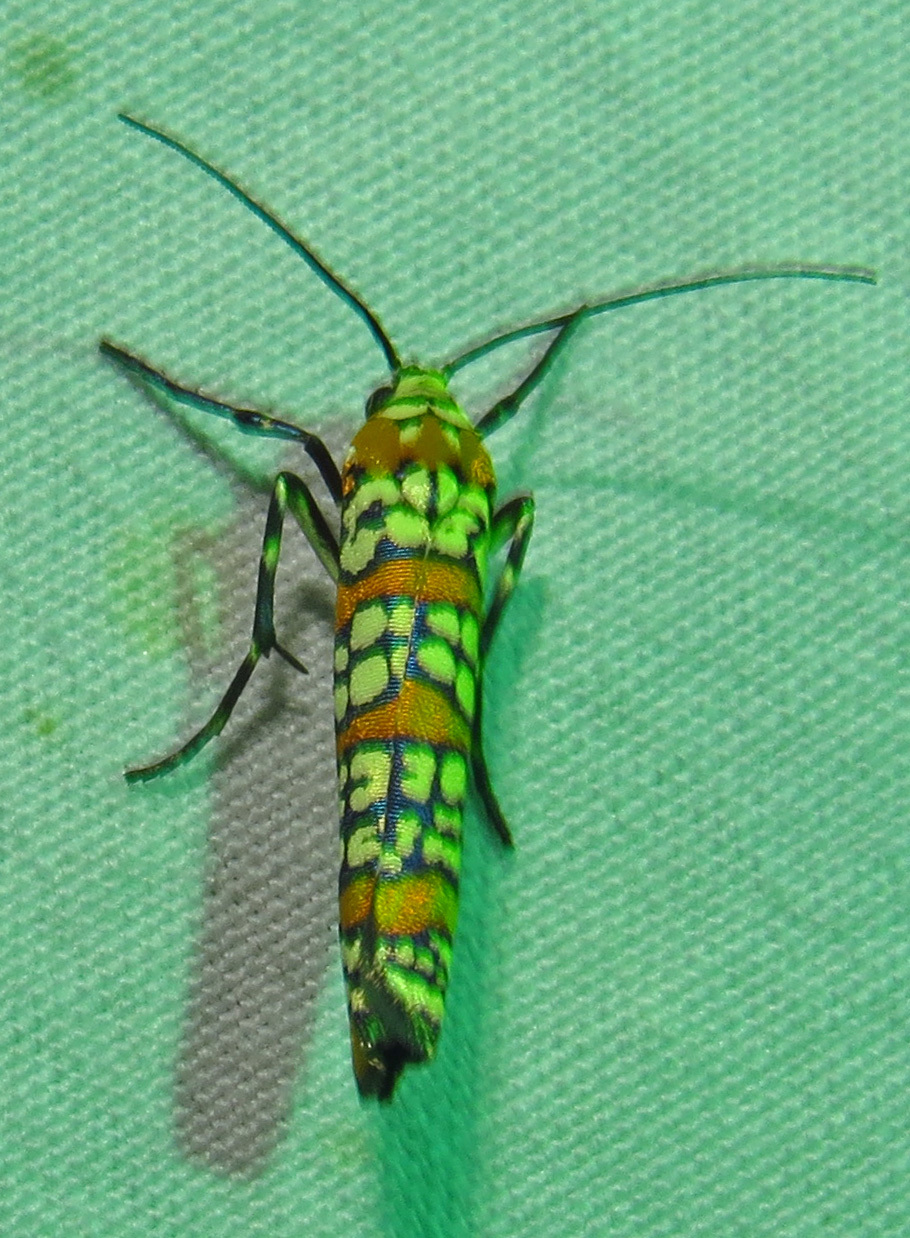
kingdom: Animalia
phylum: Arthropoda
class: Insecta
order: Lepidoptera
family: Attevidae
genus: Atteva
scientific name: Atteva punctella
